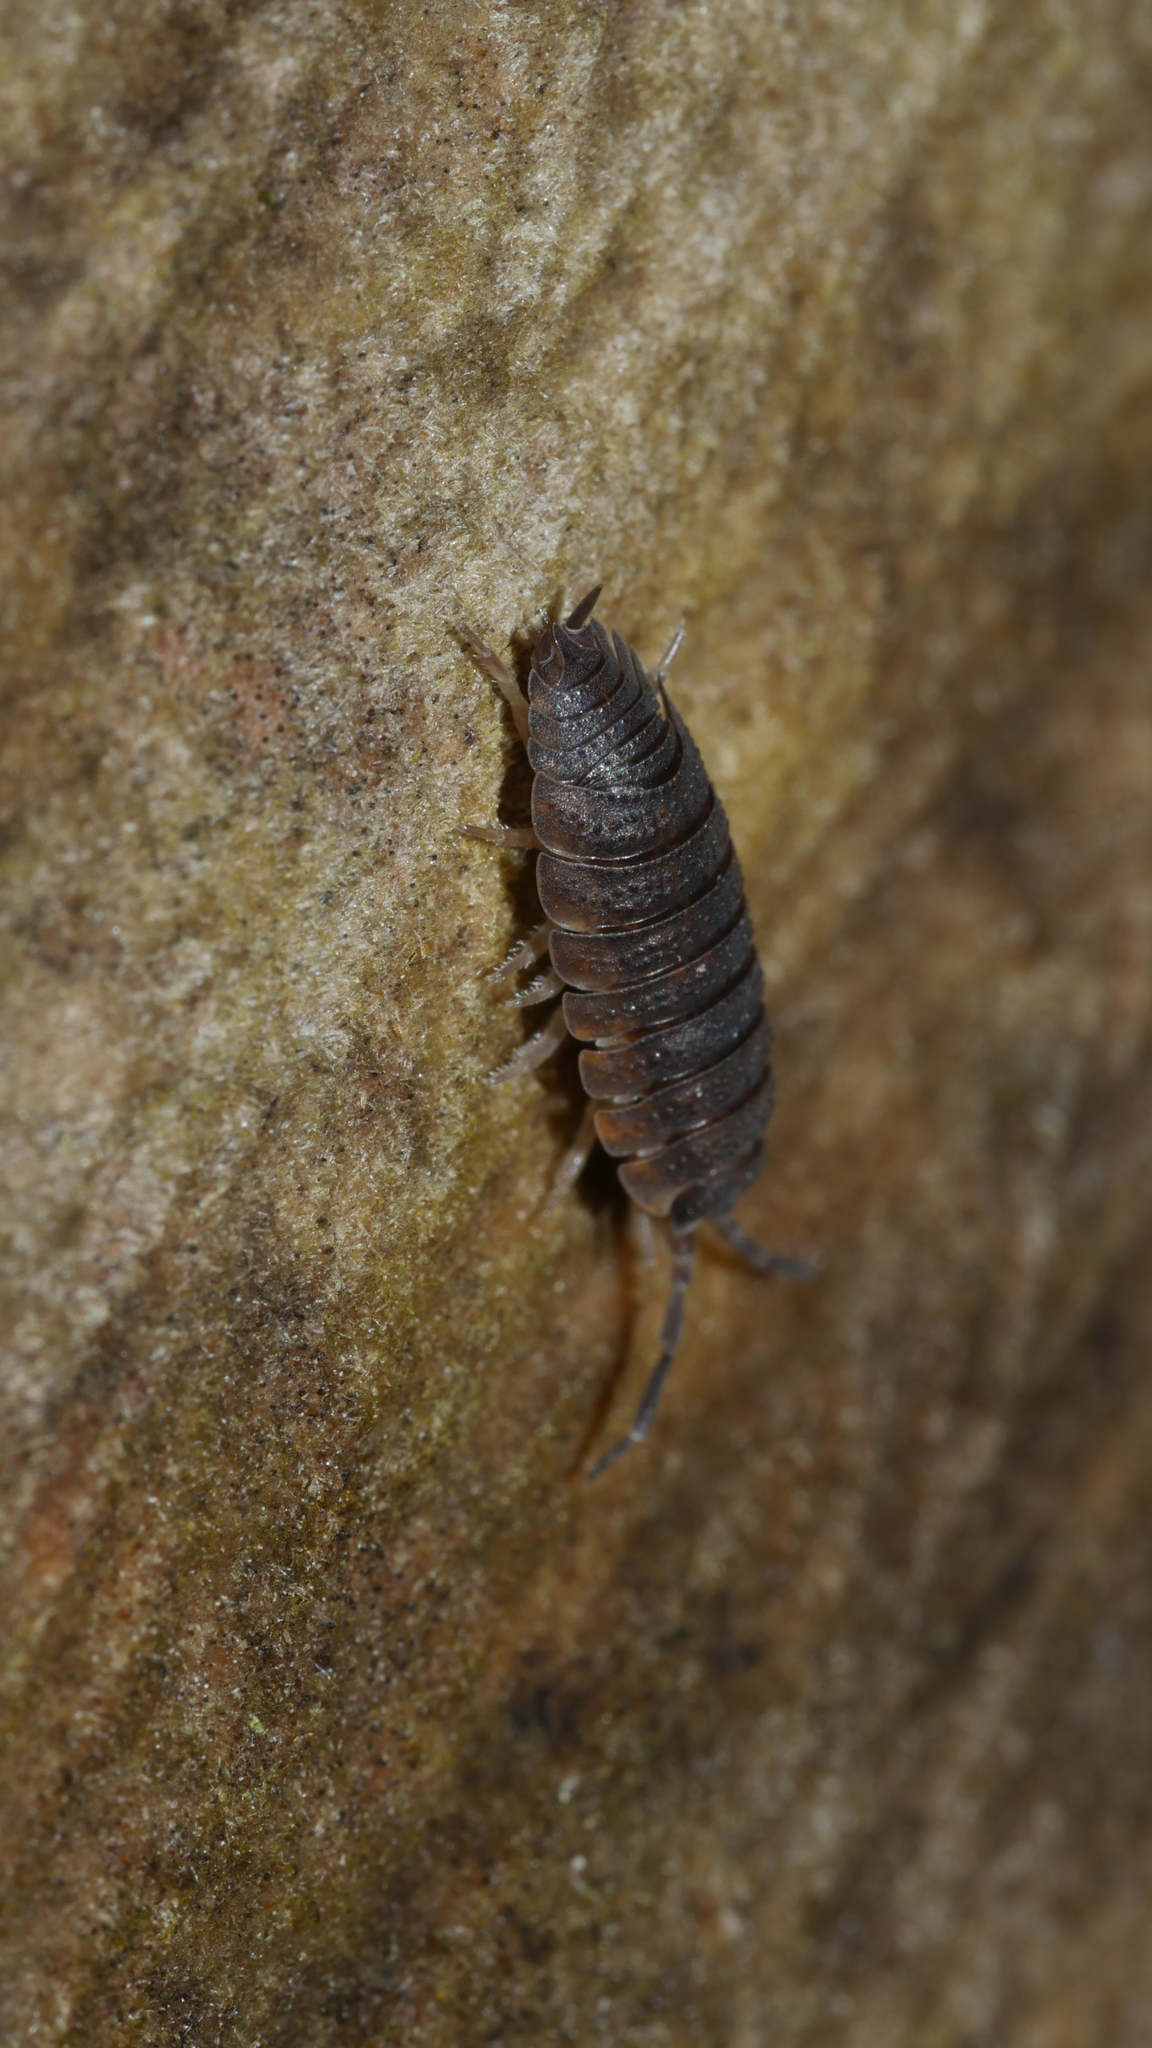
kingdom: Animalia
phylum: Arthropoda
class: Malacostraca
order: Isopoda
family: Porcellionidae
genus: Porcellio
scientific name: Porcellio scaber
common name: Common rough woodlouse
